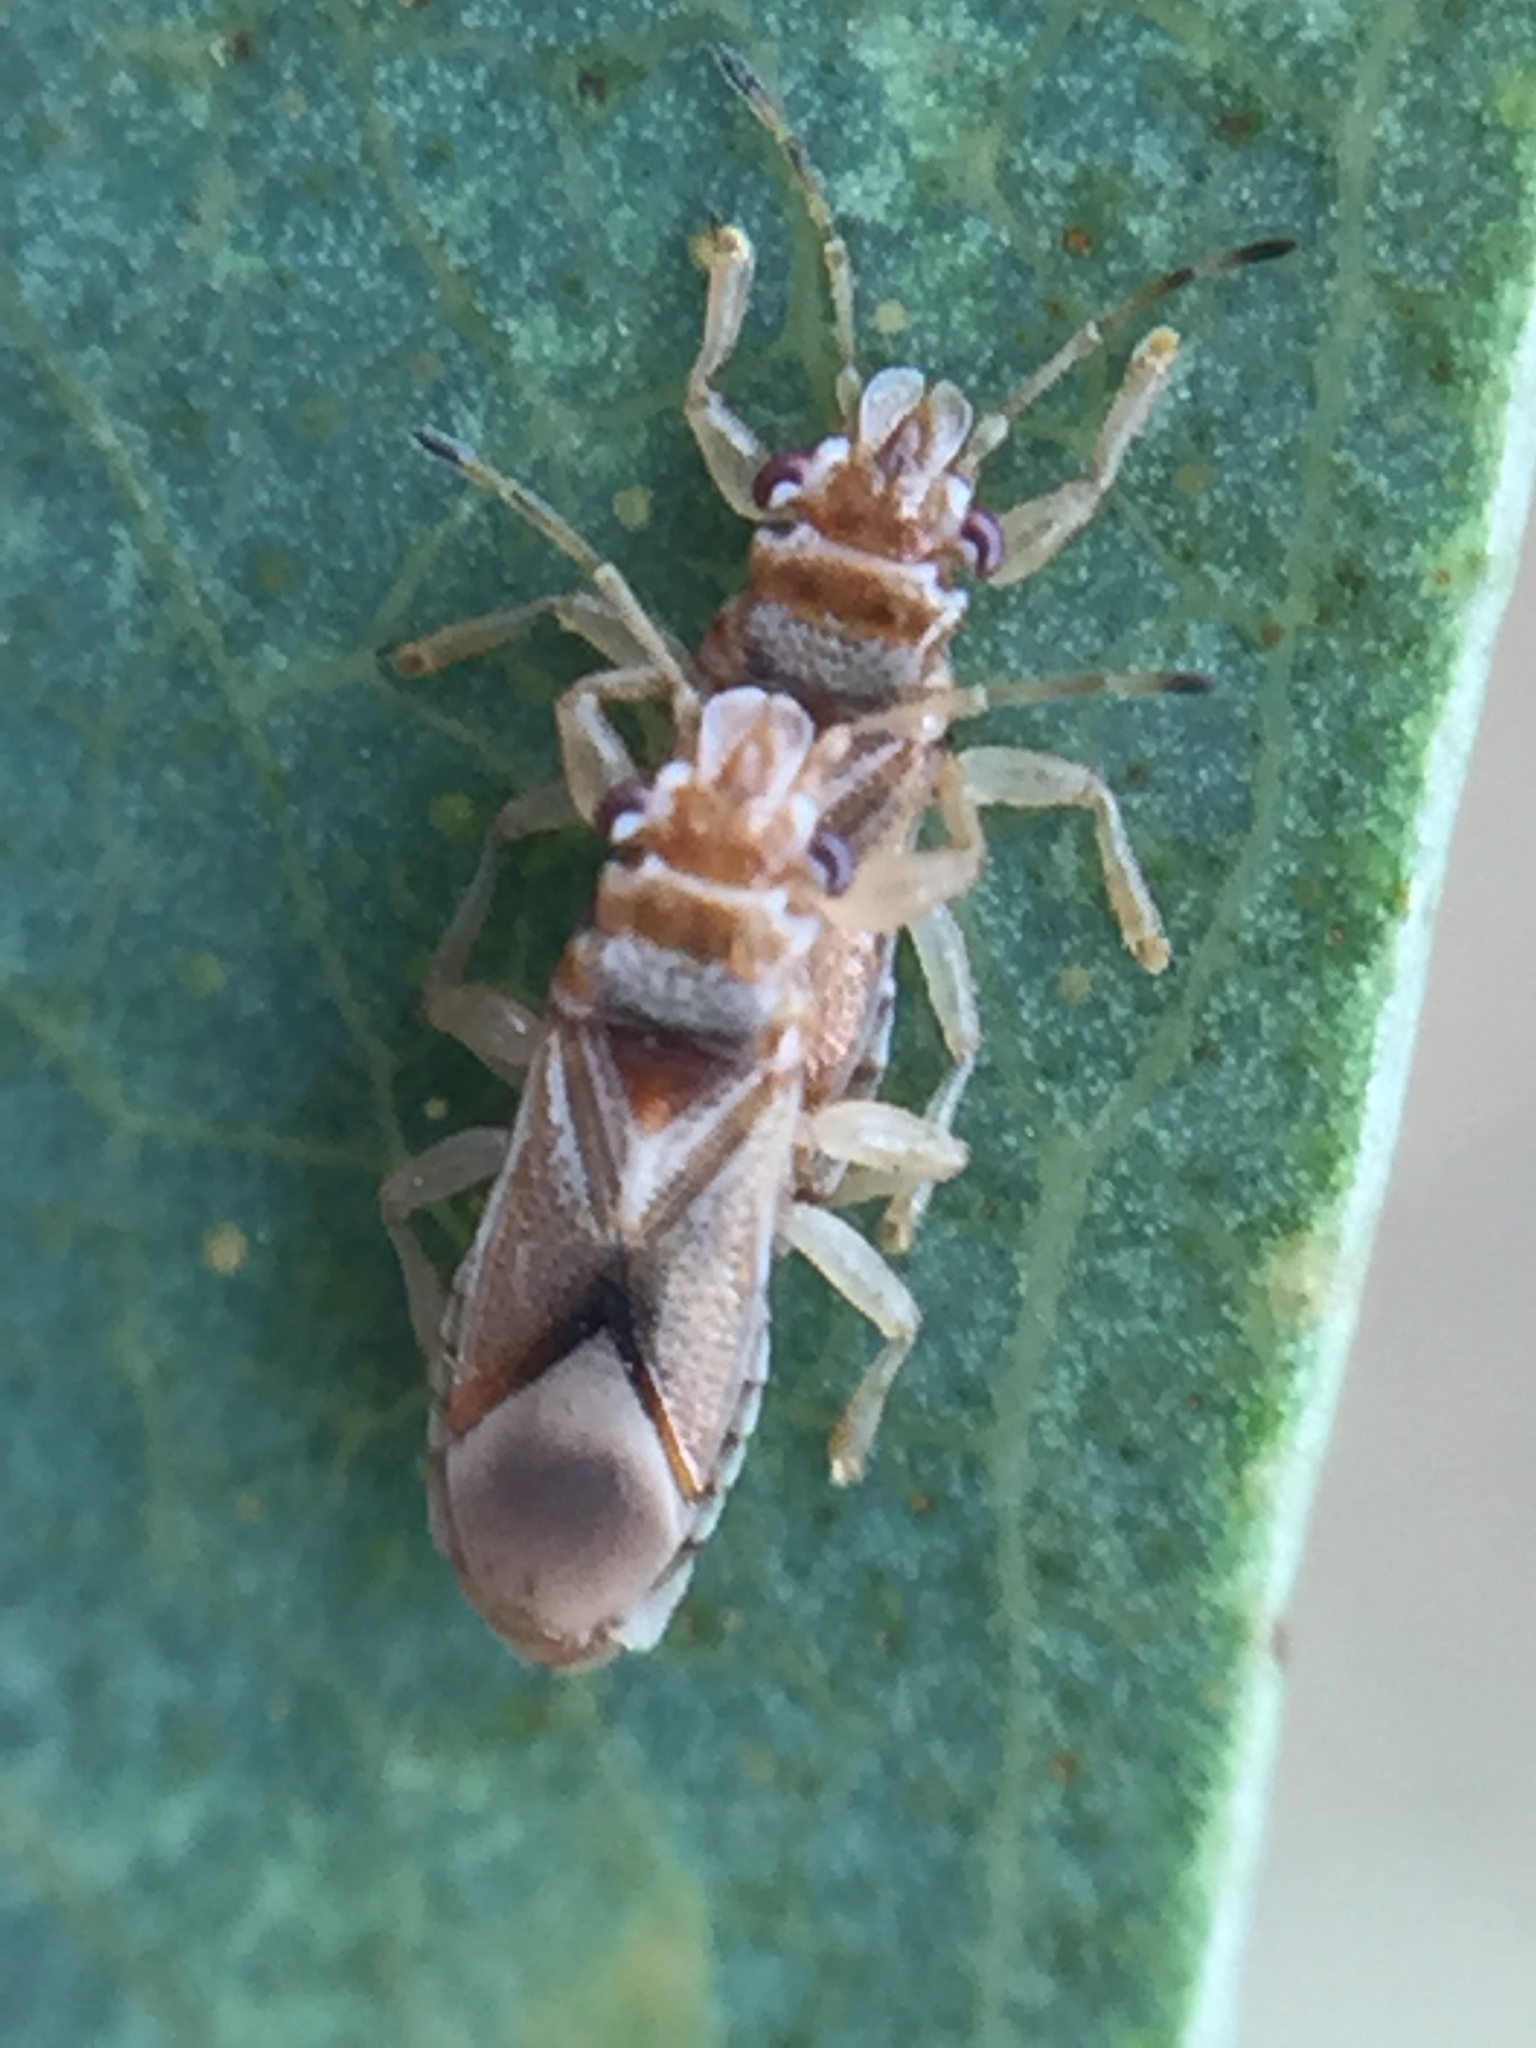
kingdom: Animalia
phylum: Arthropoda
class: Insecta
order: Hemiptera
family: Thaumastocoridae
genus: Thaumastocoris
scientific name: Thaumastocoris peregrinus
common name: Bronze bug
